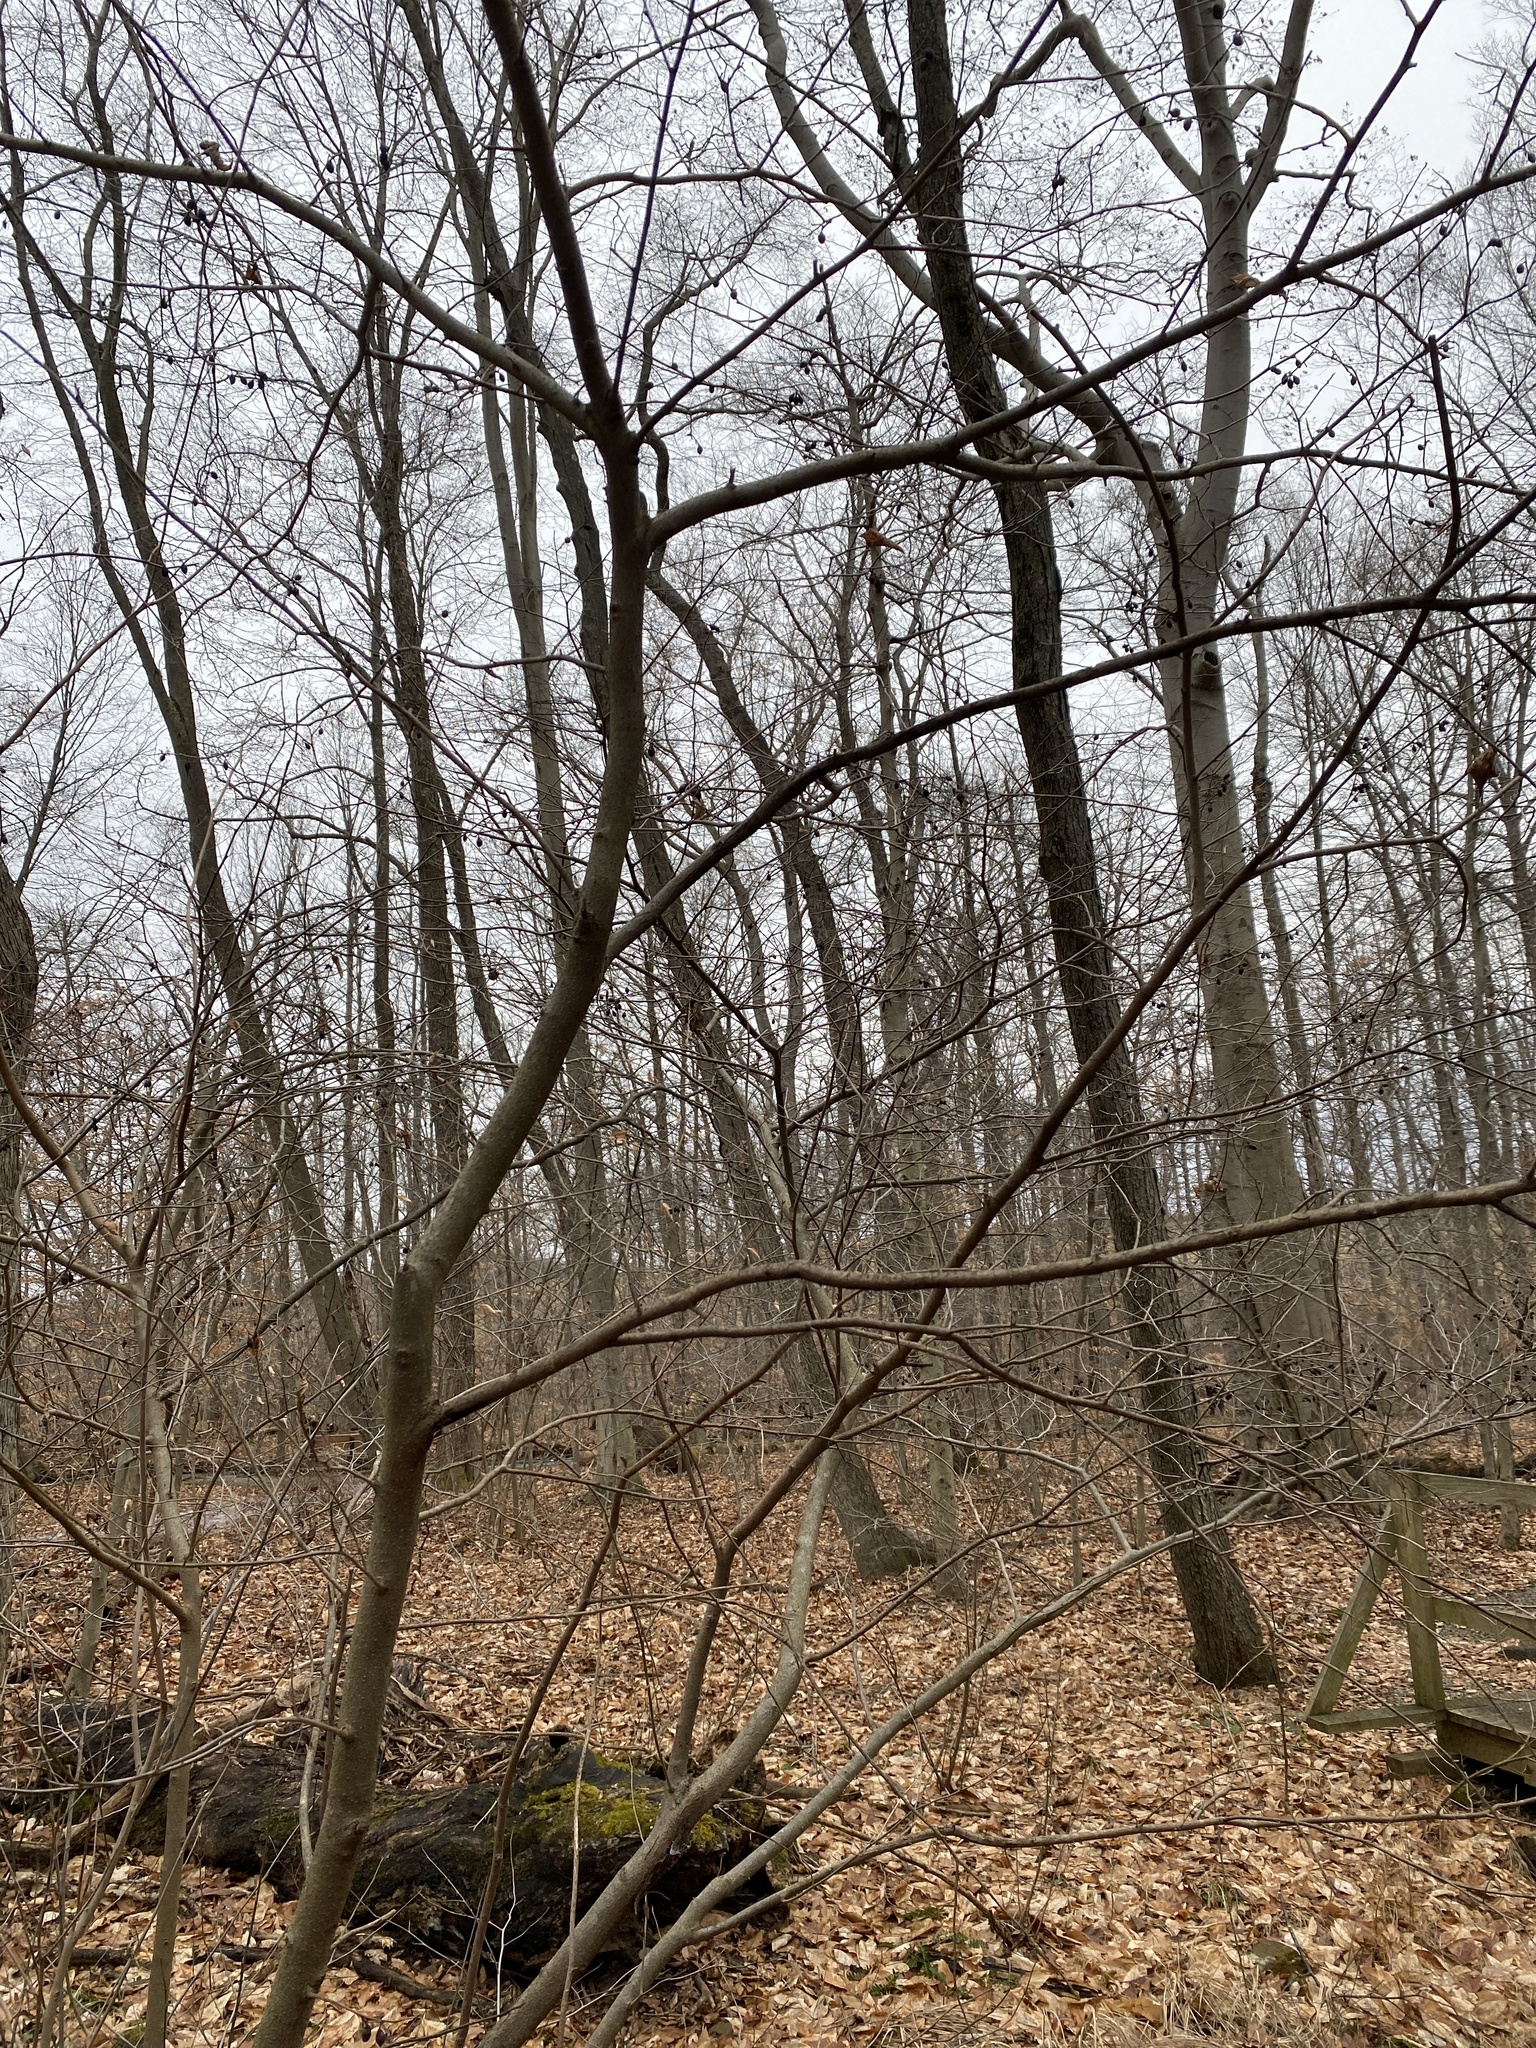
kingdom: Plantae
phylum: Tracheophyta
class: Magnoliopsida
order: Laurales
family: Lauraceae
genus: Lindera
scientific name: Lindera benzoin
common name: Spicebush
